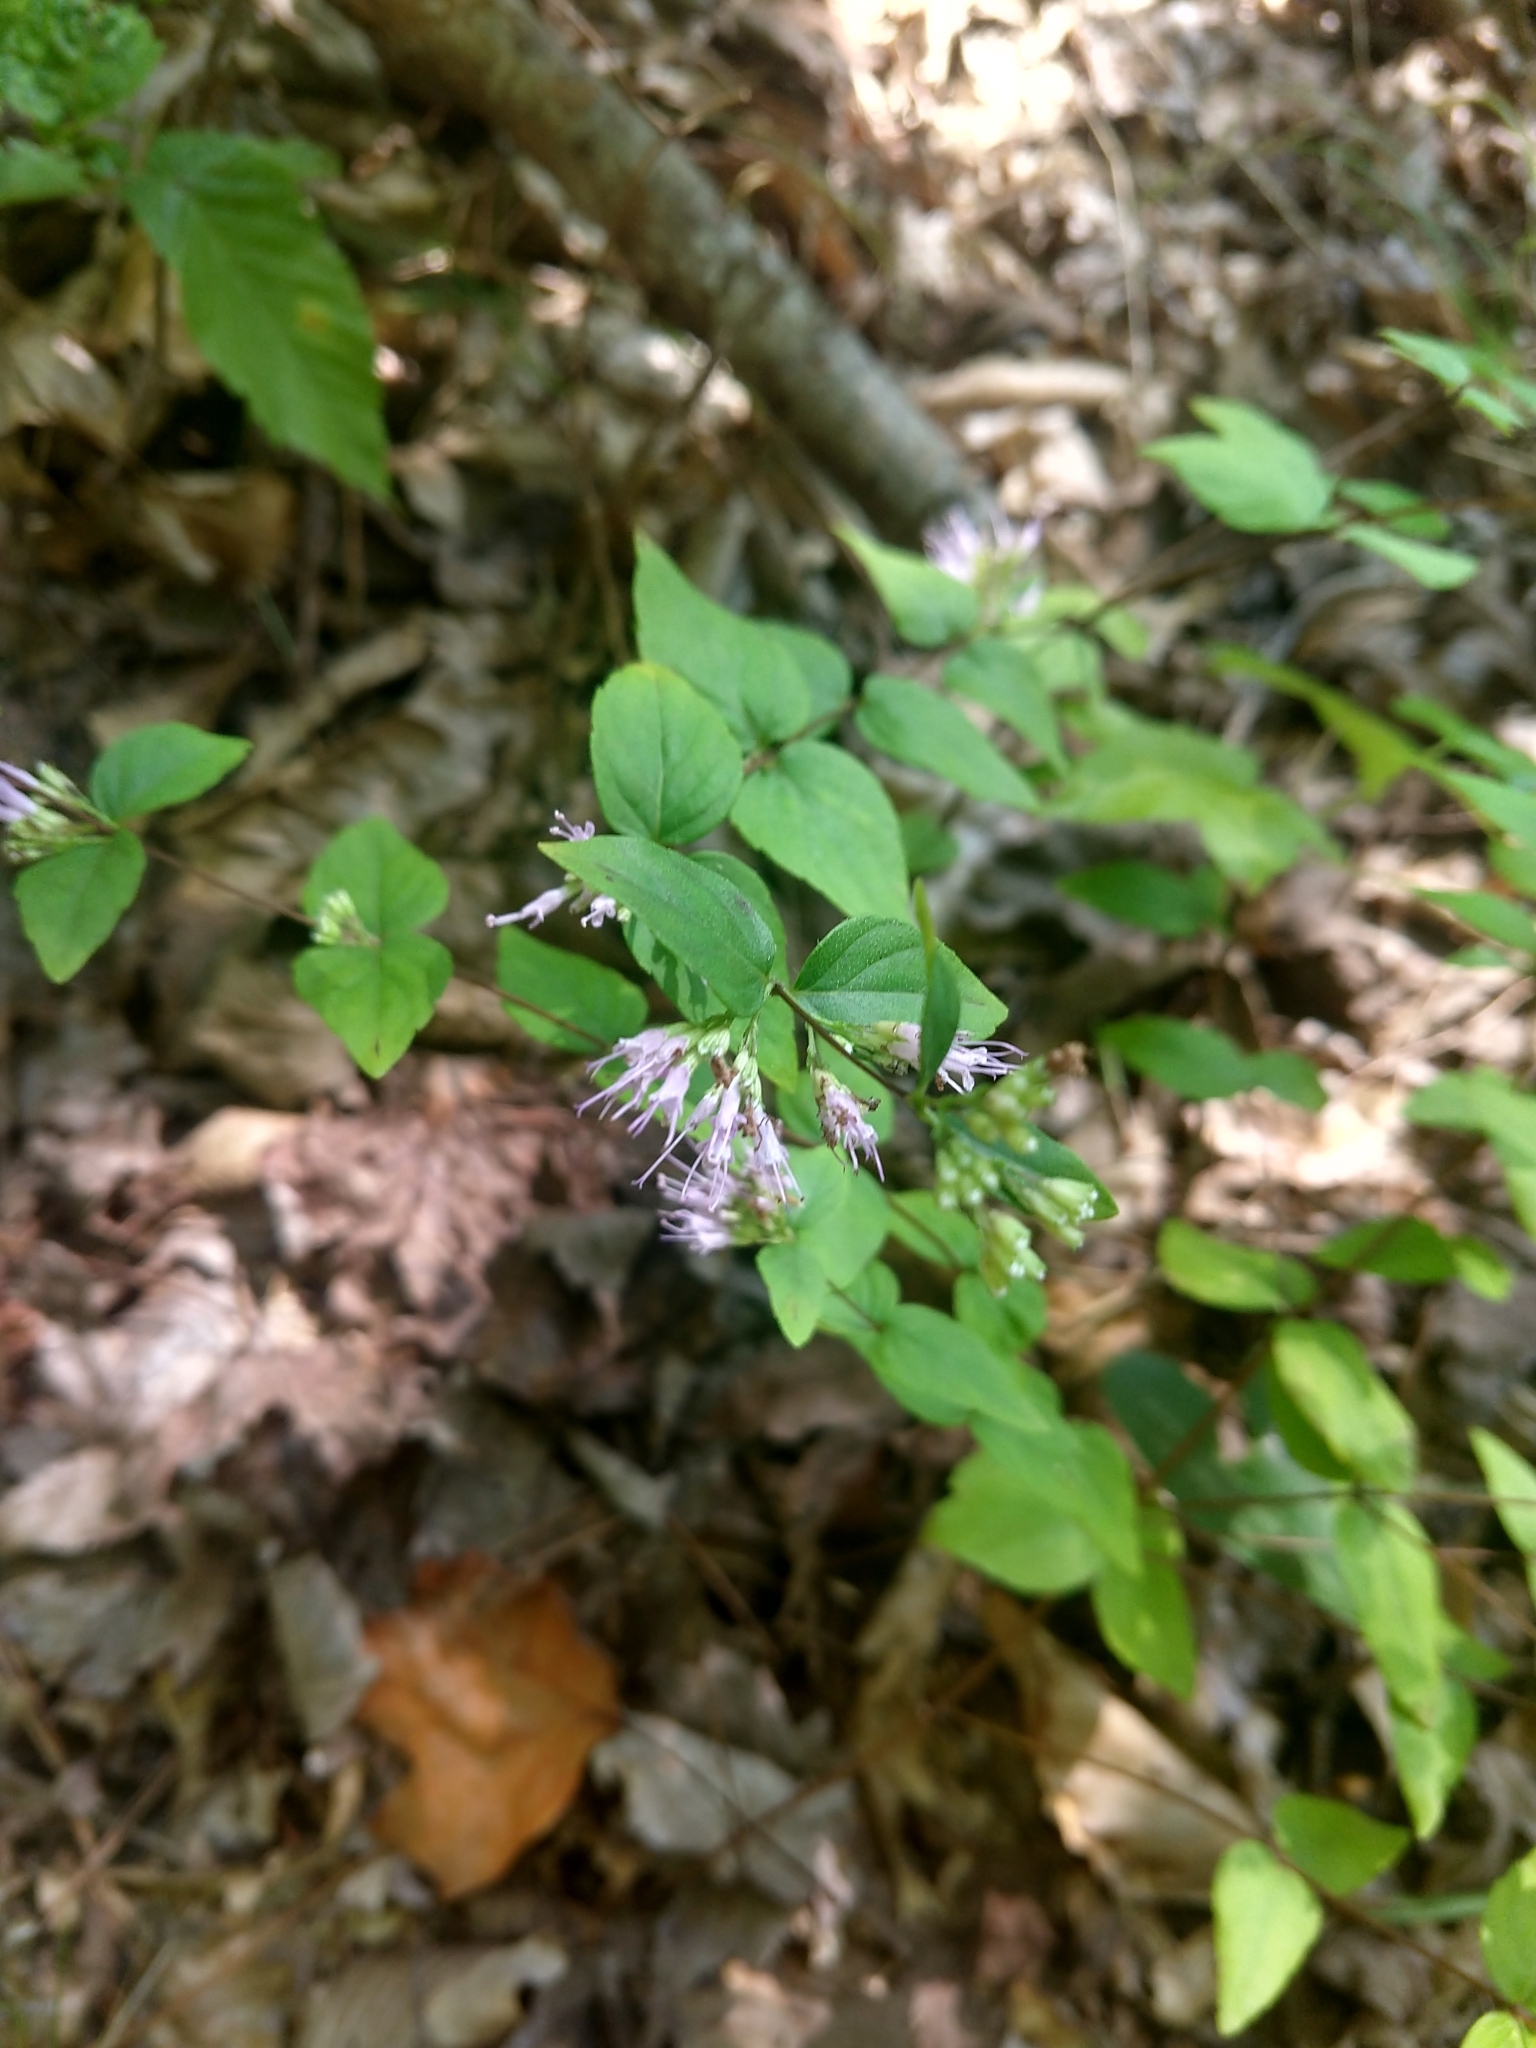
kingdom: Plantae
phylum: Tracheophyta
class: Magnoliopsida
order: Lamiales
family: Lamiaceae
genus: Cunila
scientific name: Cunila origanoides
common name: American dittany
